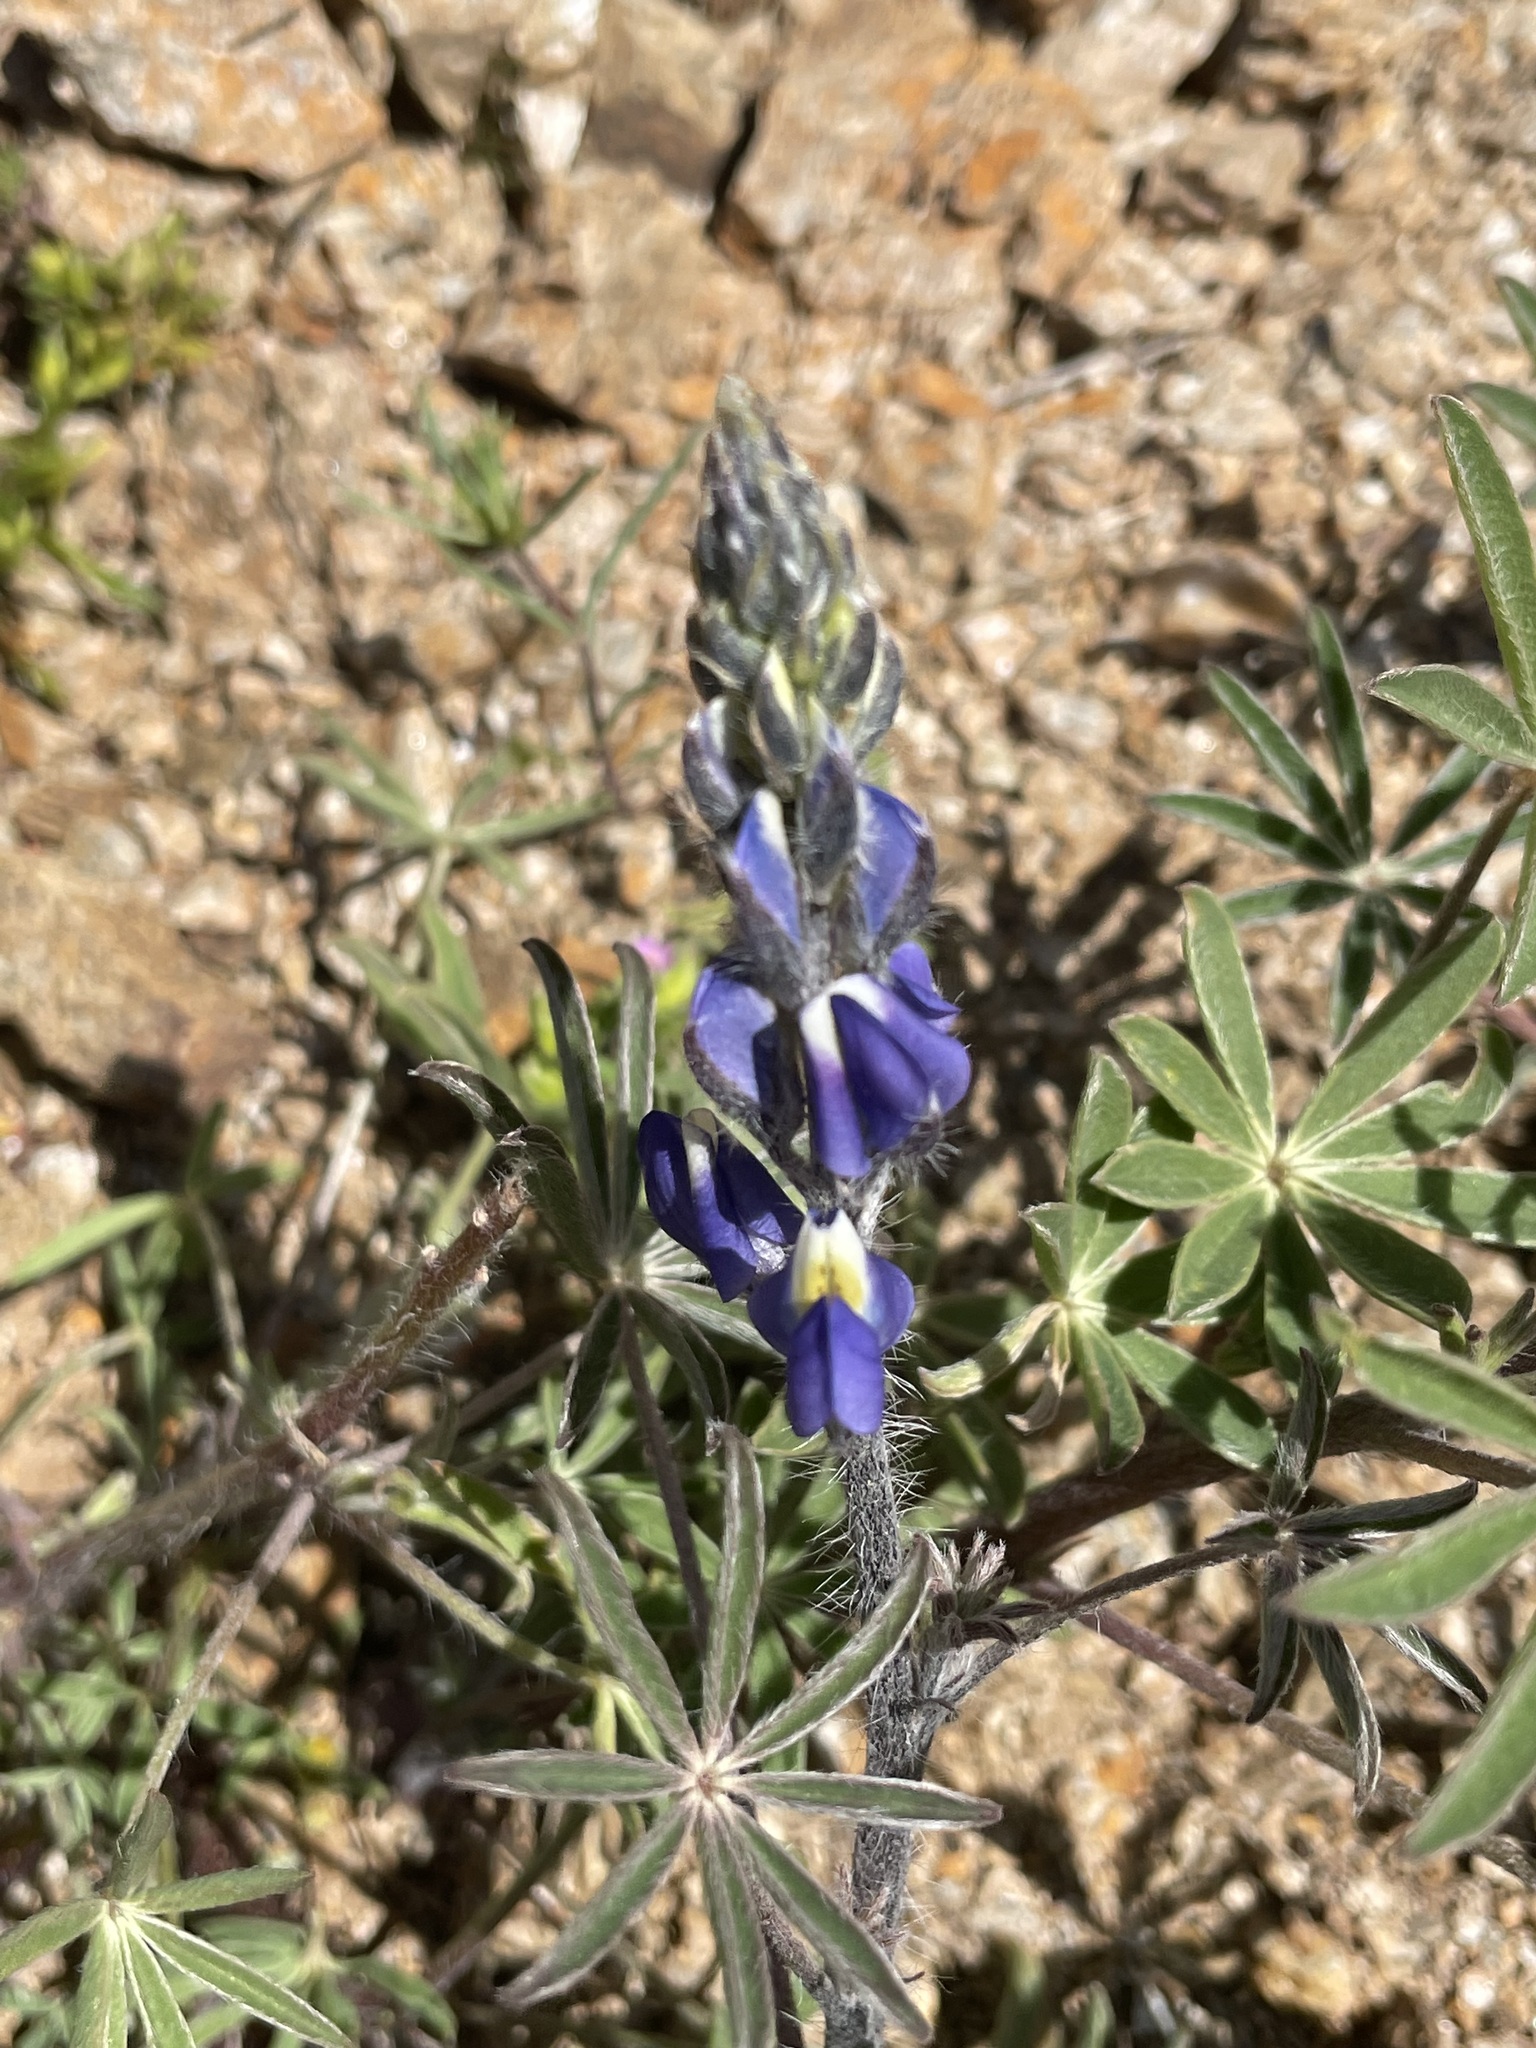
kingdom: Plantae
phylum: Tracheophyta
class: Magnoliopsida
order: Fabales
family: Fabaceae
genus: Lupinus
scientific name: Lupinus sparsiflorus
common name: Coulter's lupine
